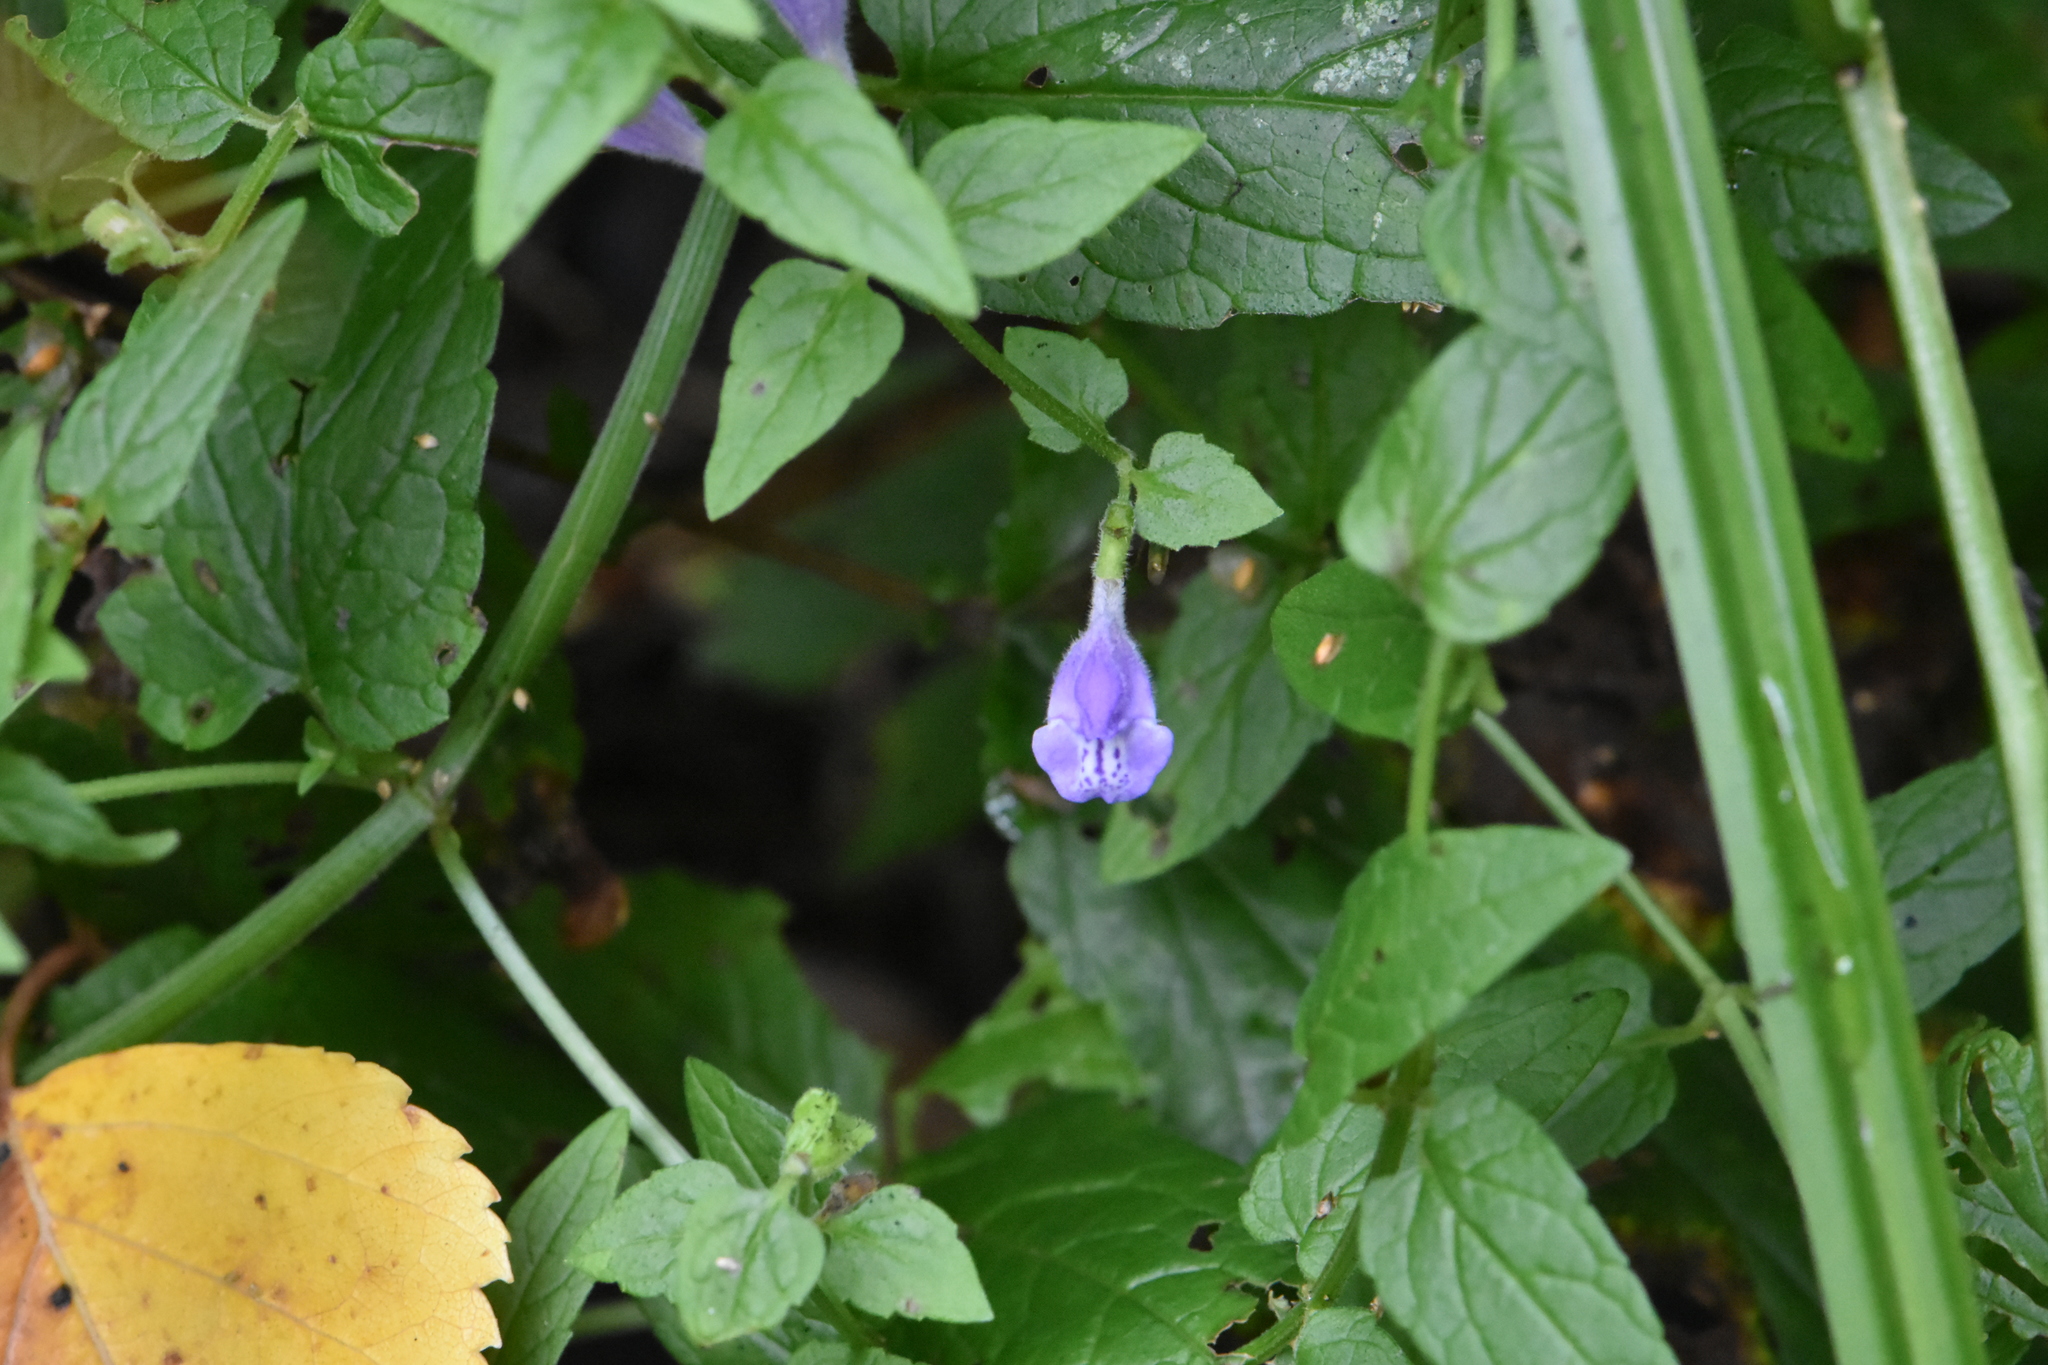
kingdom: Plantae
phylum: Tracheophyta
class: Magnoliopsida
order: Lamiales
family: Lamiaceae
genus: Scutellaria
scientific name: Scutellaria galericulata
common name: Skullcap
